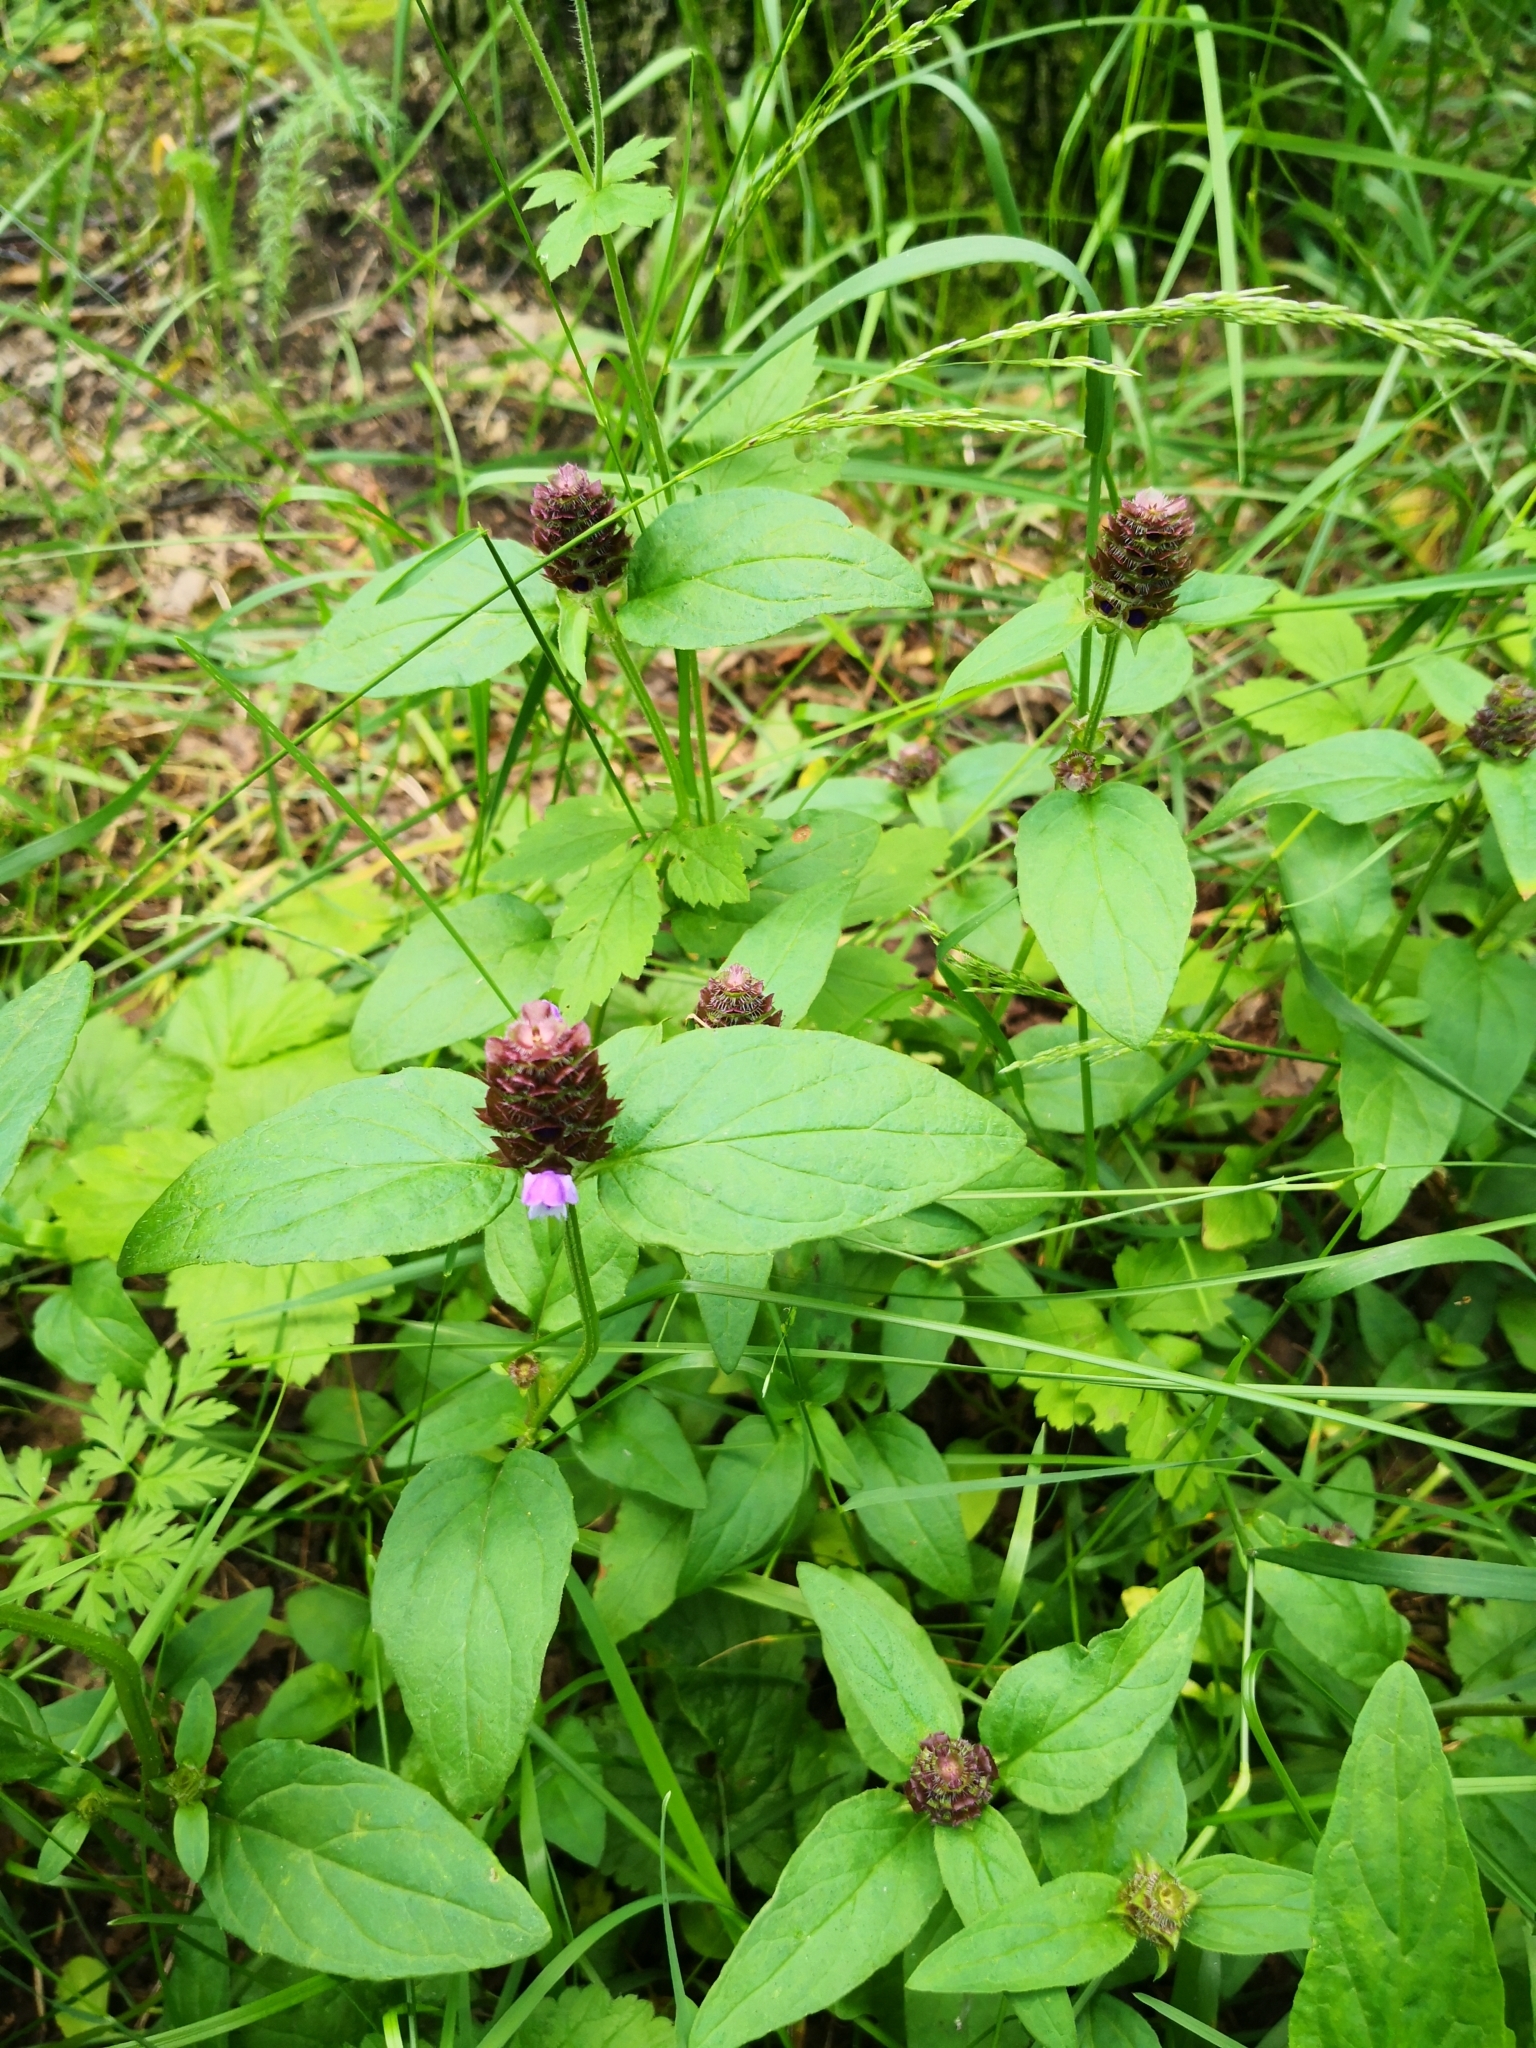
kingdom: Plantae
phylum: Tracheophyta
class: Magnoliopsida
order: Lamiales
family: Lamiaceae
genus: Prunella
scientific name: Prunella vulgaris
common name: Heal-all
